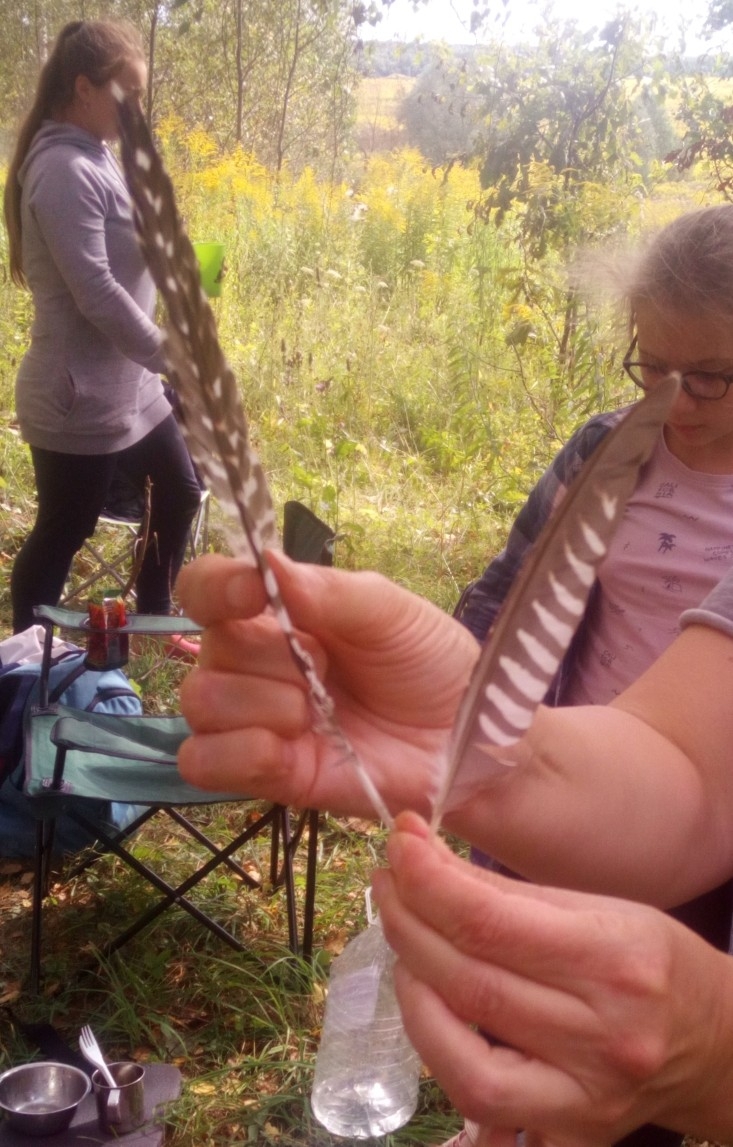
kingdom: Animalia
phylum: Chordata
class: Aves
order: Cuculiformes
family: Cuculidae
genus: Cuculus
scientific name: Cuculus canorus
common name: Common cuckoo
